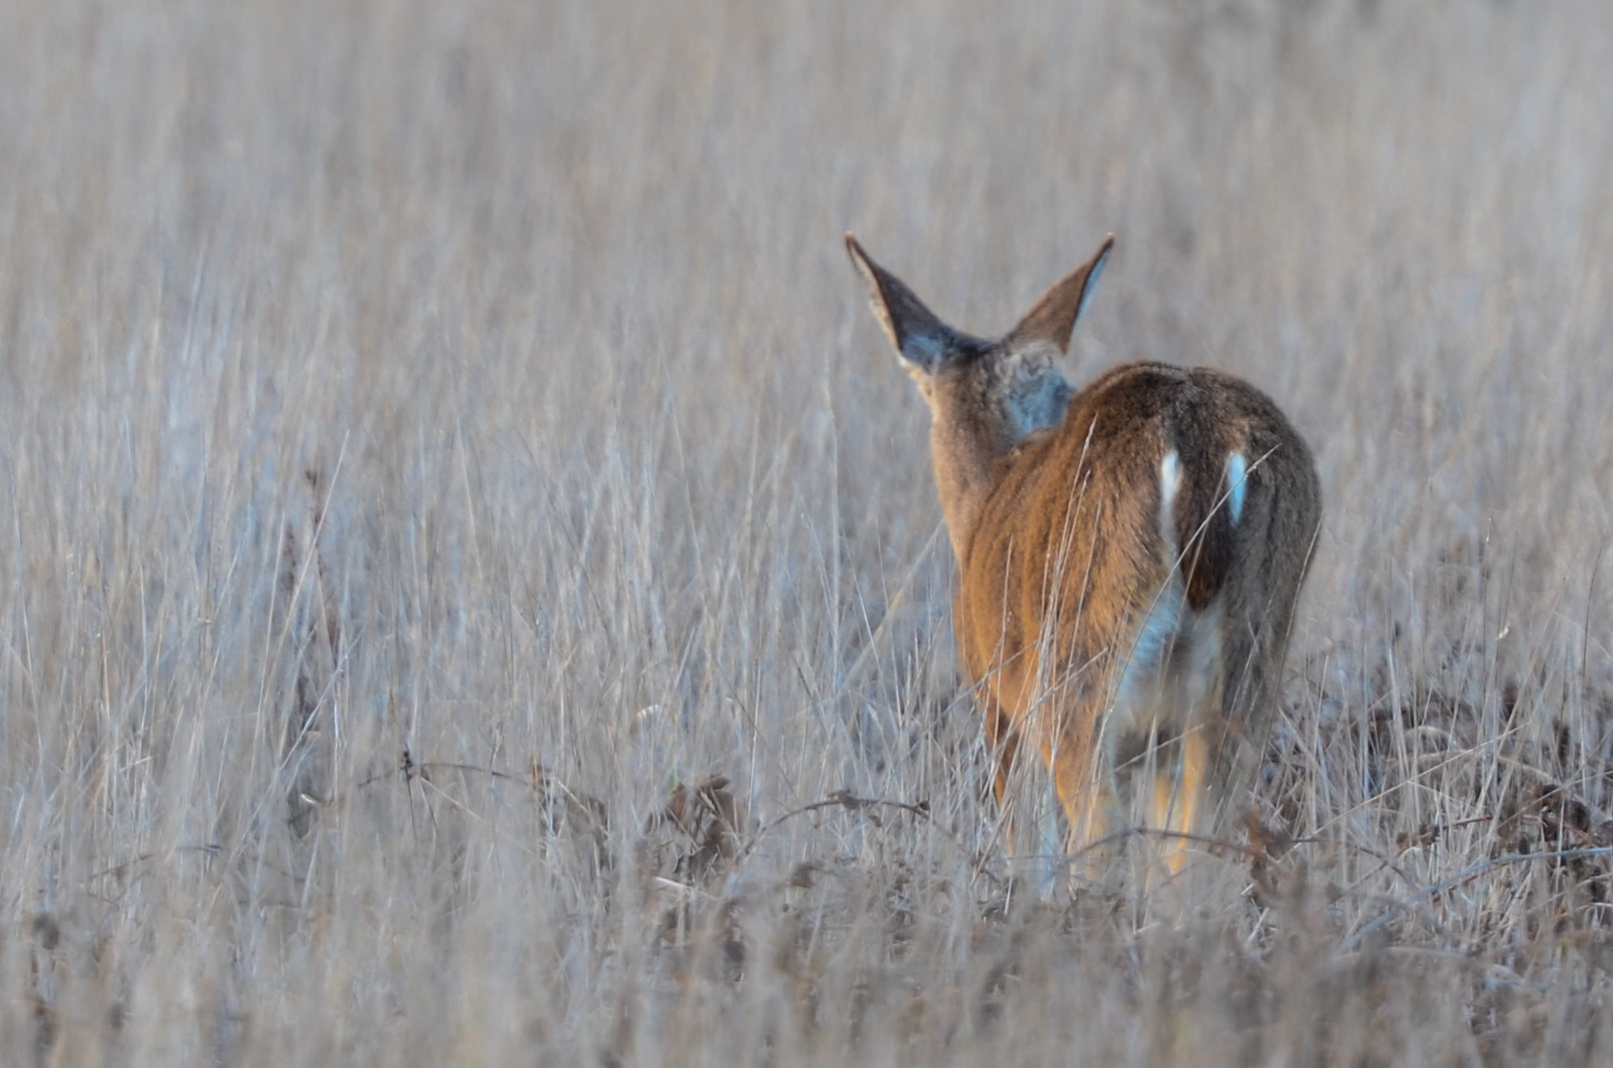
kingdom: Animalia
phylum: Chordata
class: Mammalia
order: Artiodactyla
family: Cervidae
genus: Odocoileus
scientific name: Odocoileus hemionus
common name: Mule deer
